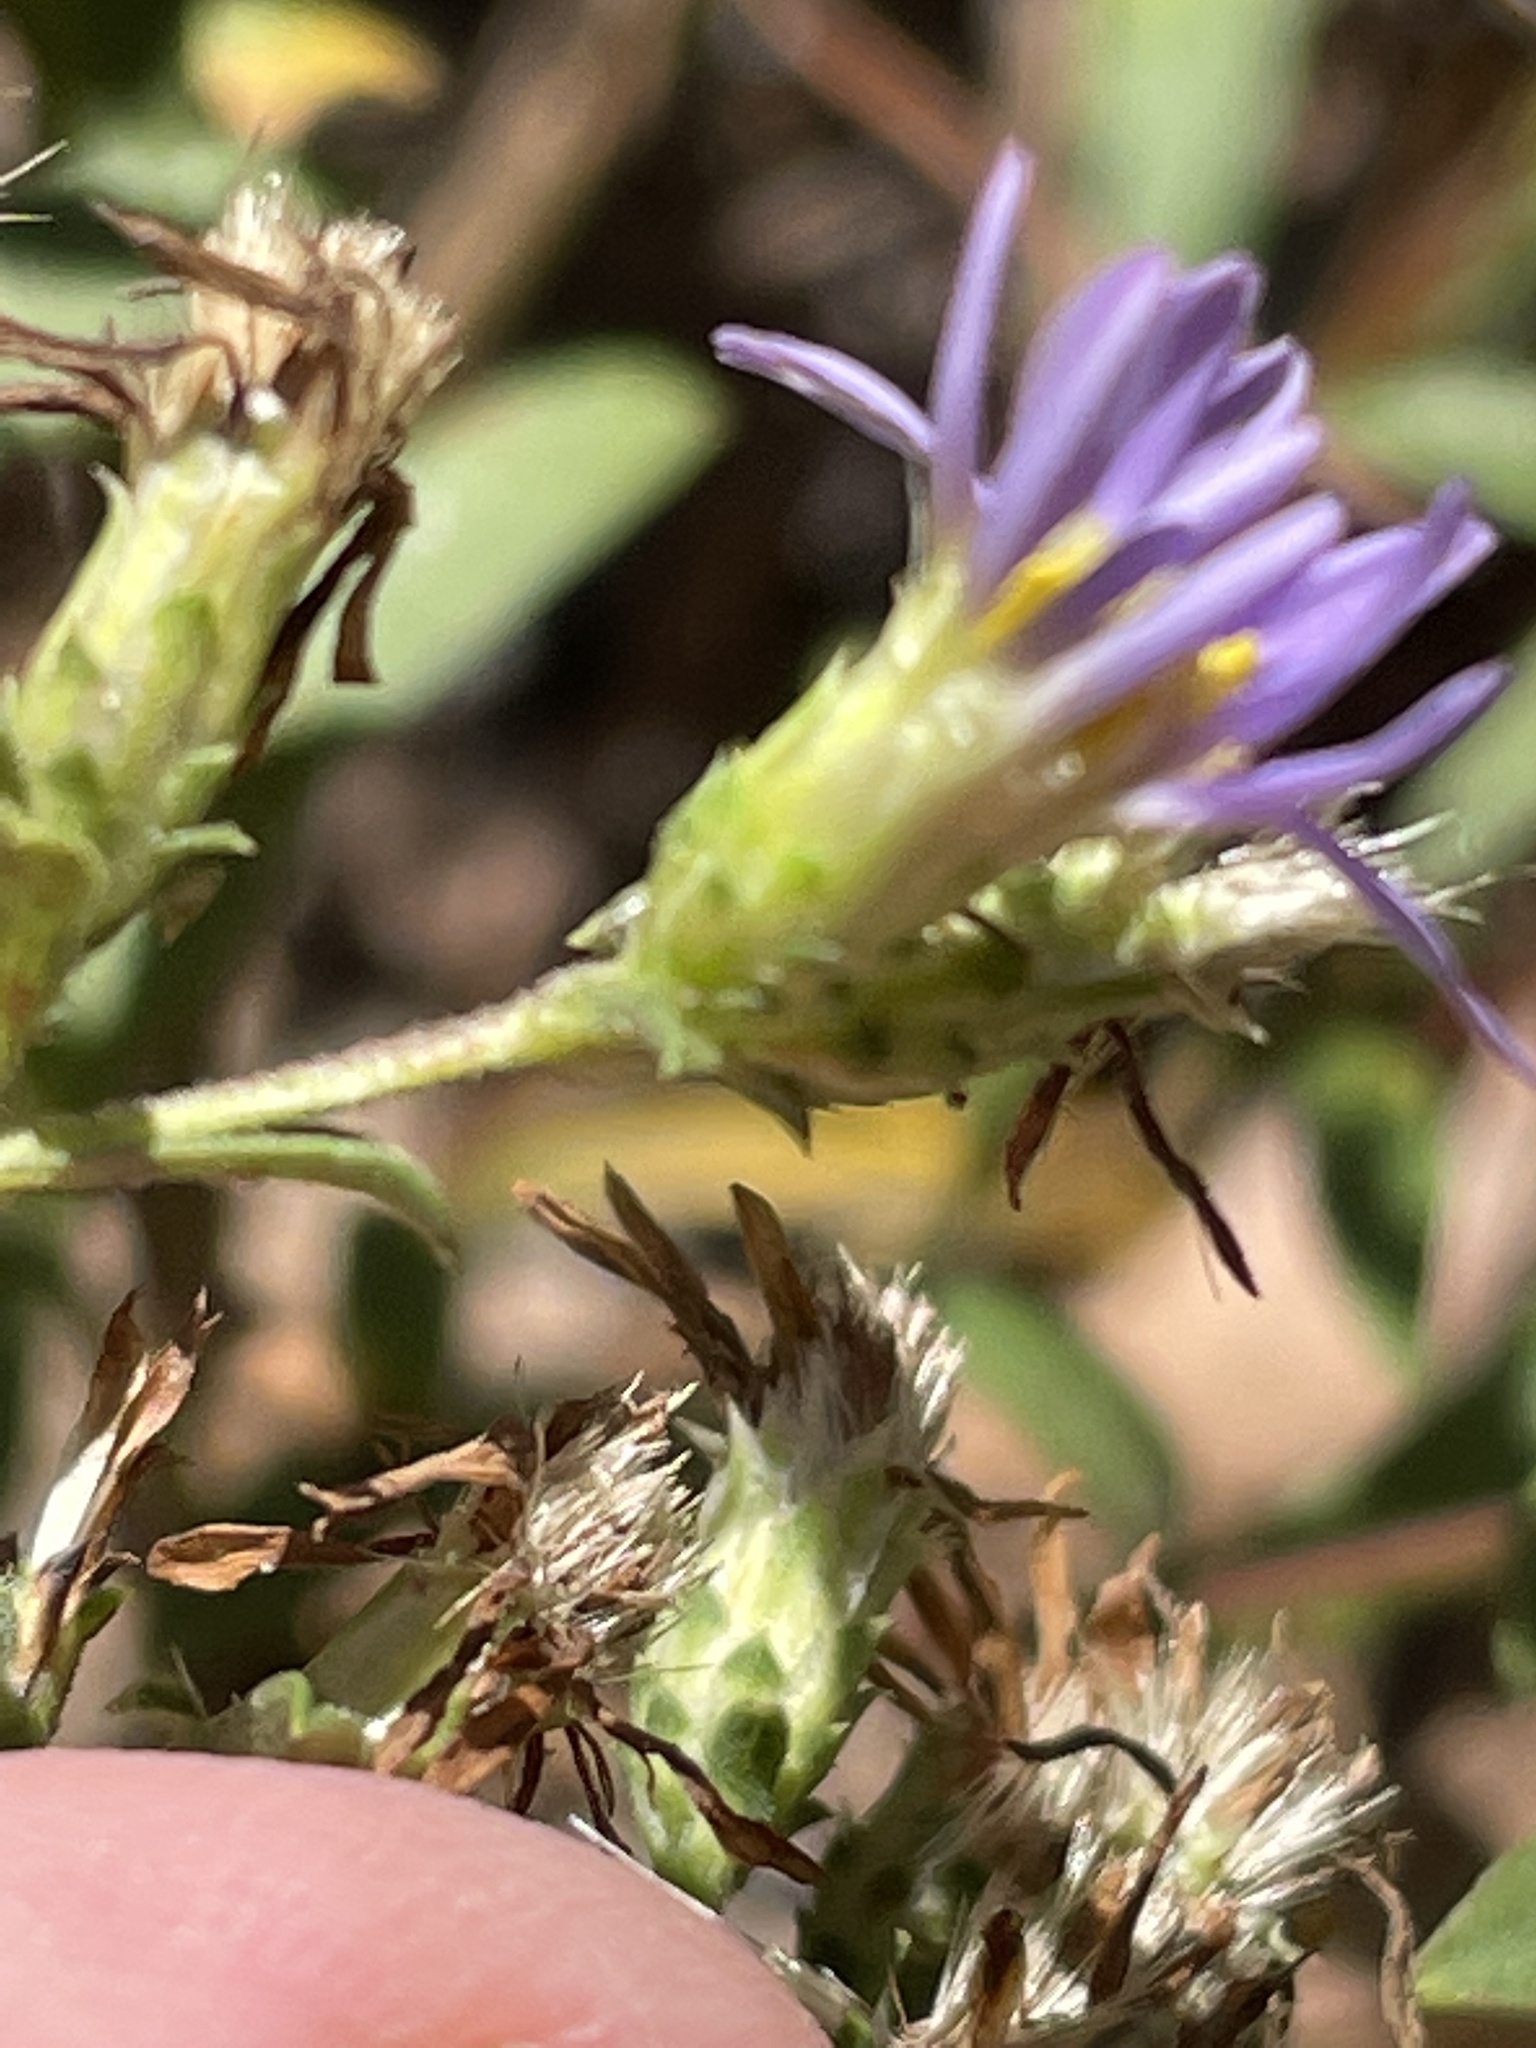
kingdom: Plantae
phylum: Tracheophyta
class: Magnoliopsida
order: Asterales
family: Asteraceae
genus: Eurybia
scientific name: Eurybia compacta
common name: Slender aster
